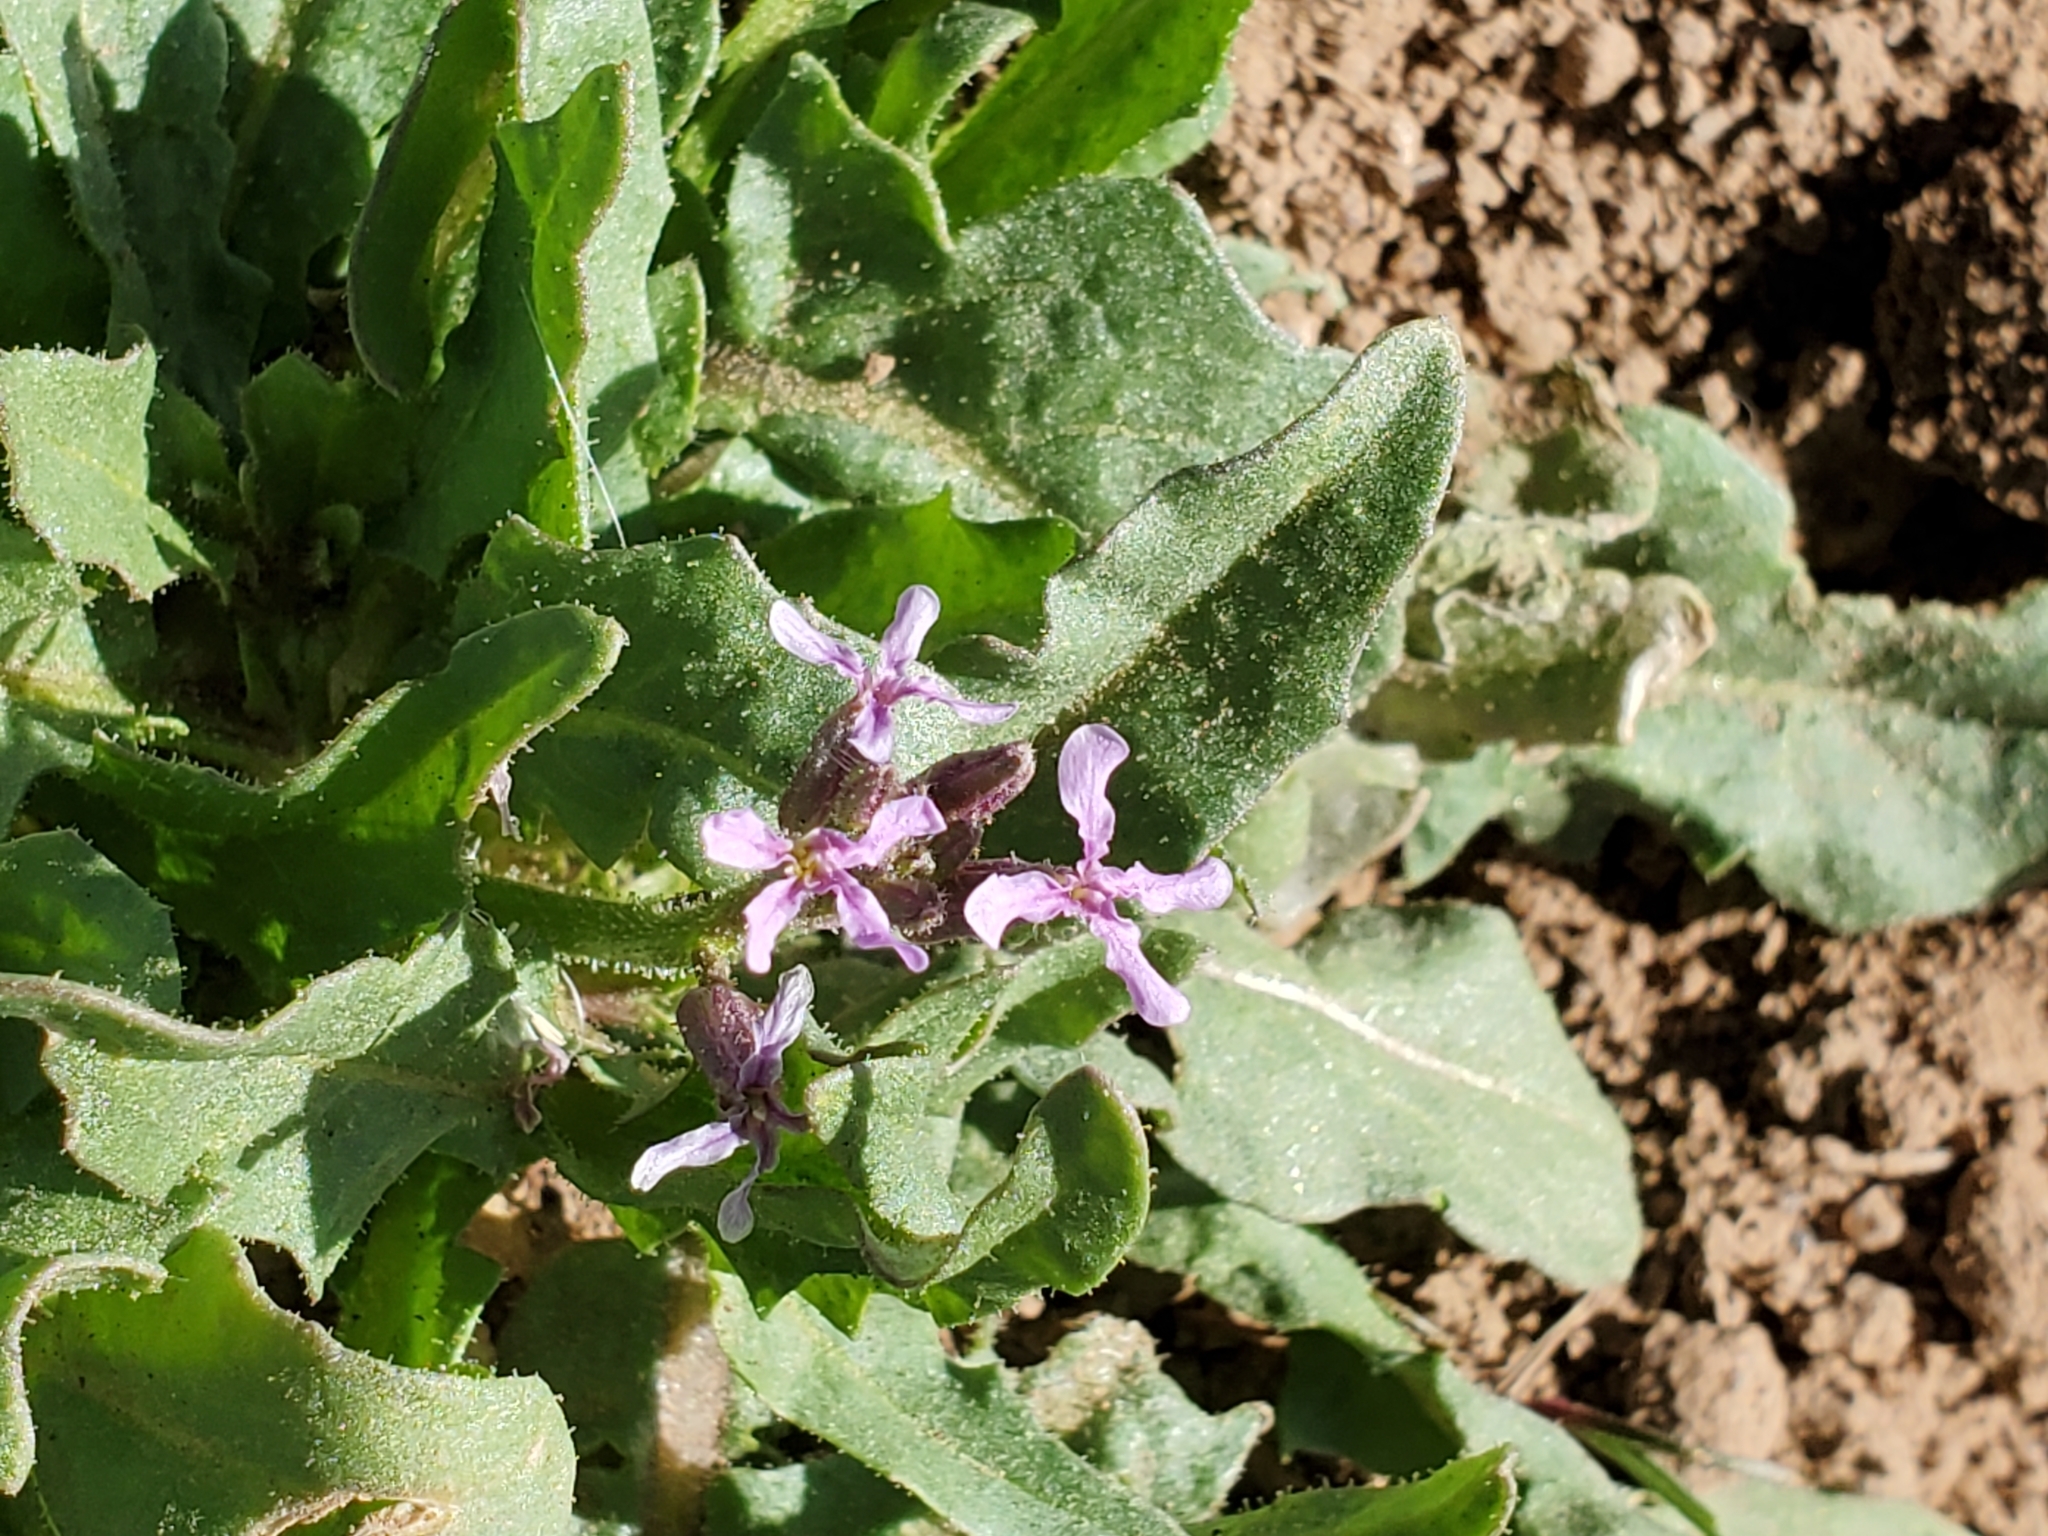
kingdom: Plantae
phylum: Tracheophyta
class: Magnoliopsida
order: Brassicales
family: Brassicaceae
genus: Chorispora
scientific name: Chorispora tenella
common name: Crossflower
